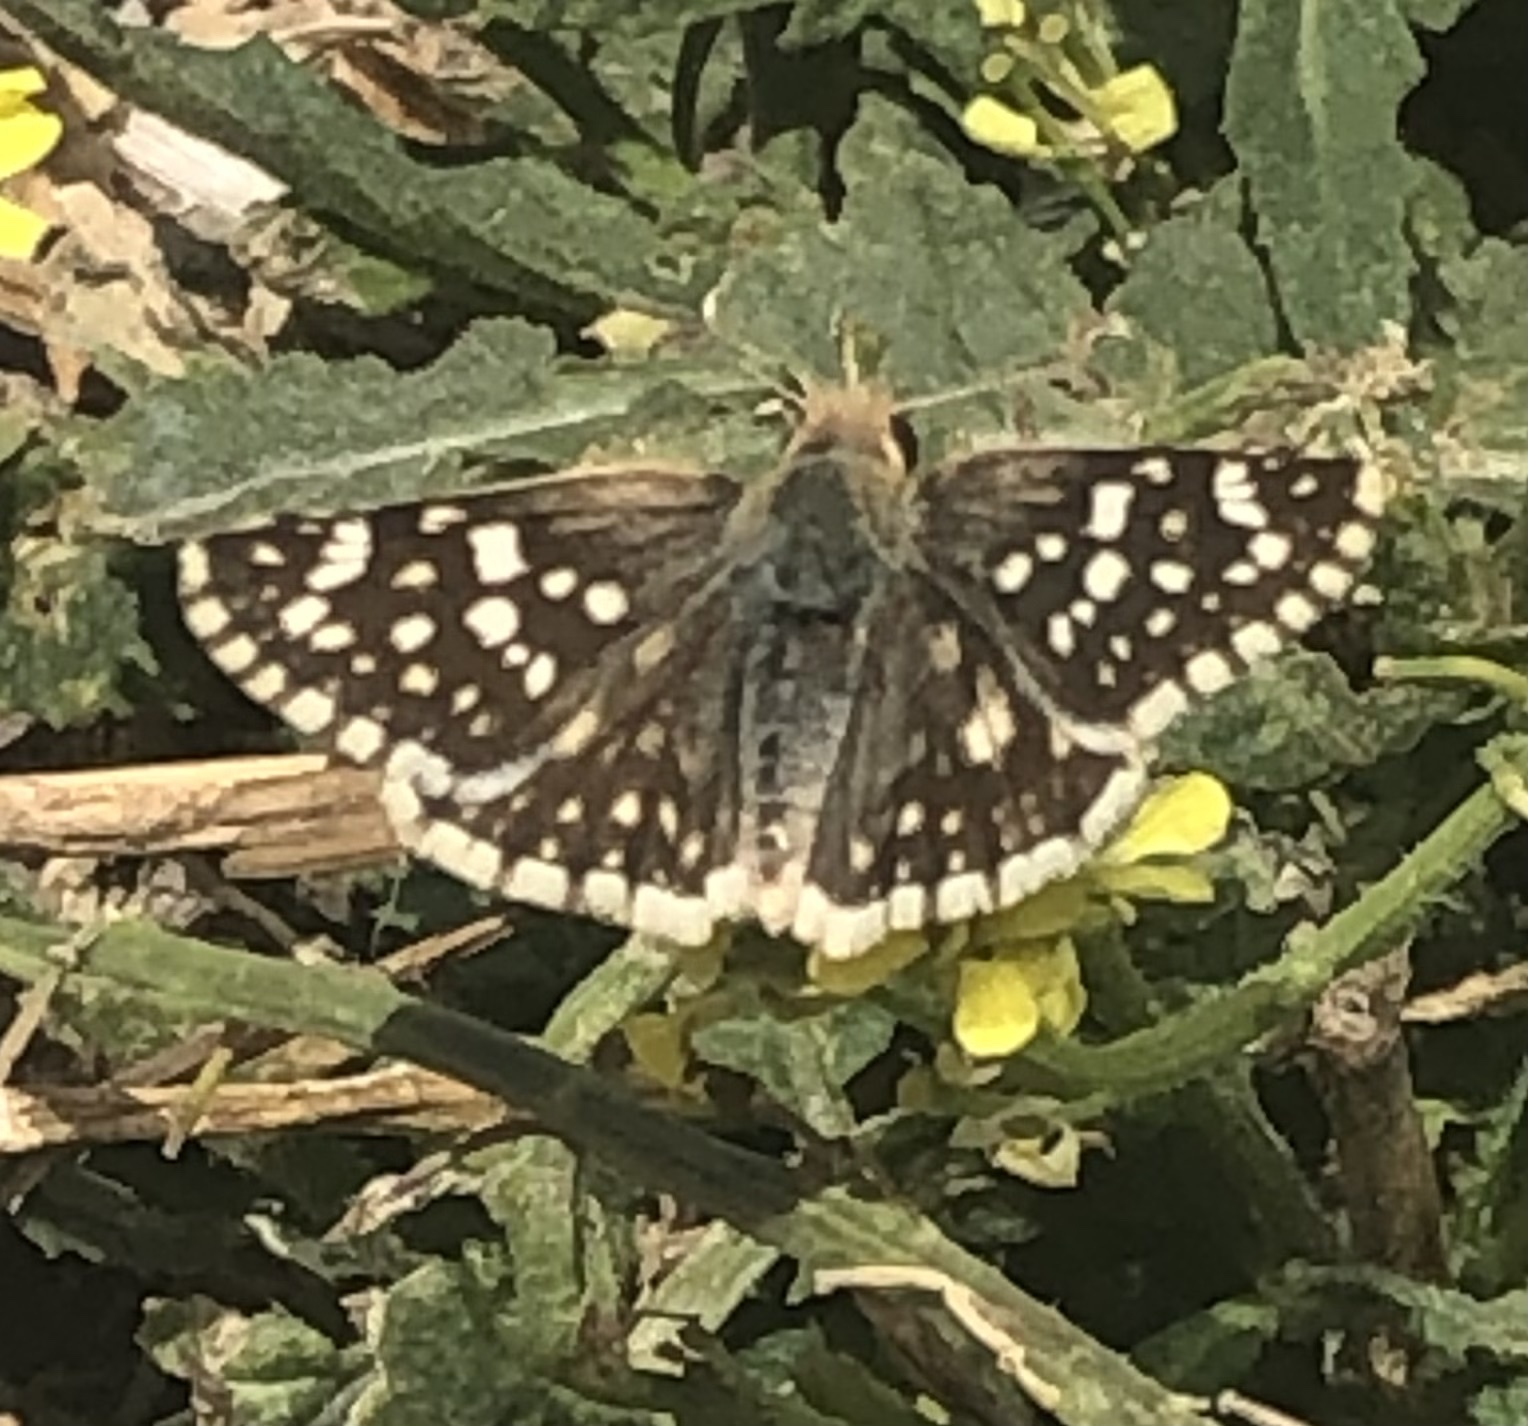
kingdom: Animalia
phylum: Arthropoda
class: Insecta
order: Lepidoptera
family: Hesperiidae
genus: Heliopetes
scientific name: Heliopetes americanus
